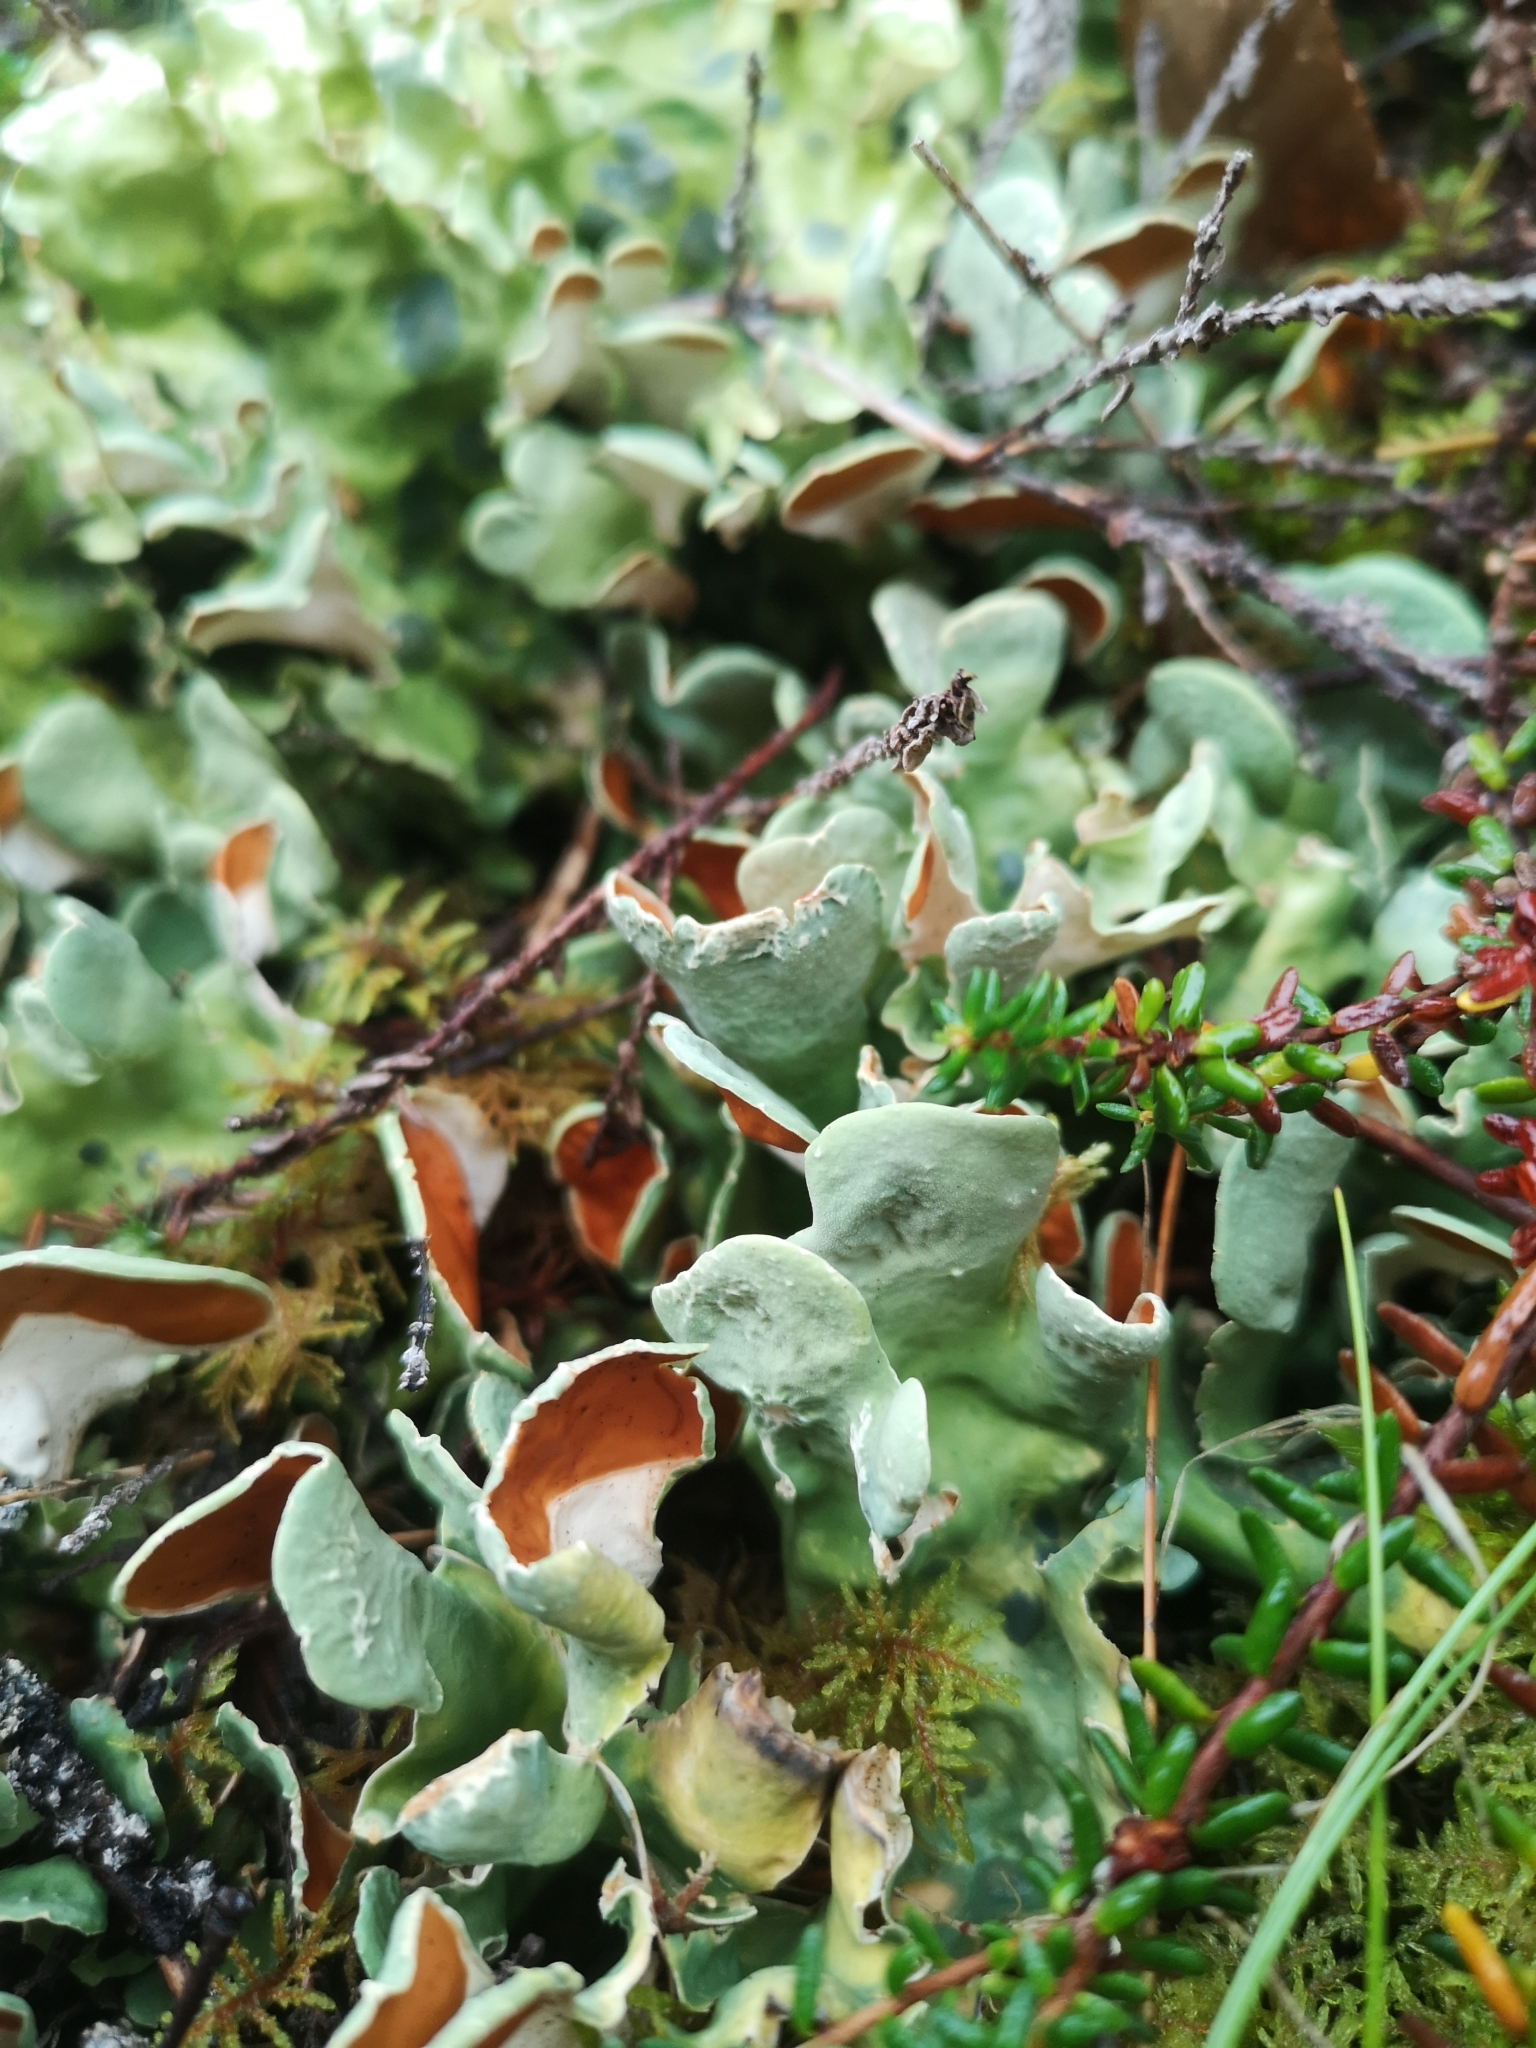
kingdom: Fungi
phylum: Ascomycota
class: Lecanoromycetes
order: Peltigerales
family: Nephromataceae
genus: Nephroma
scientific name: Nephroma arcticum
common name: Arctic kidney-lichen
